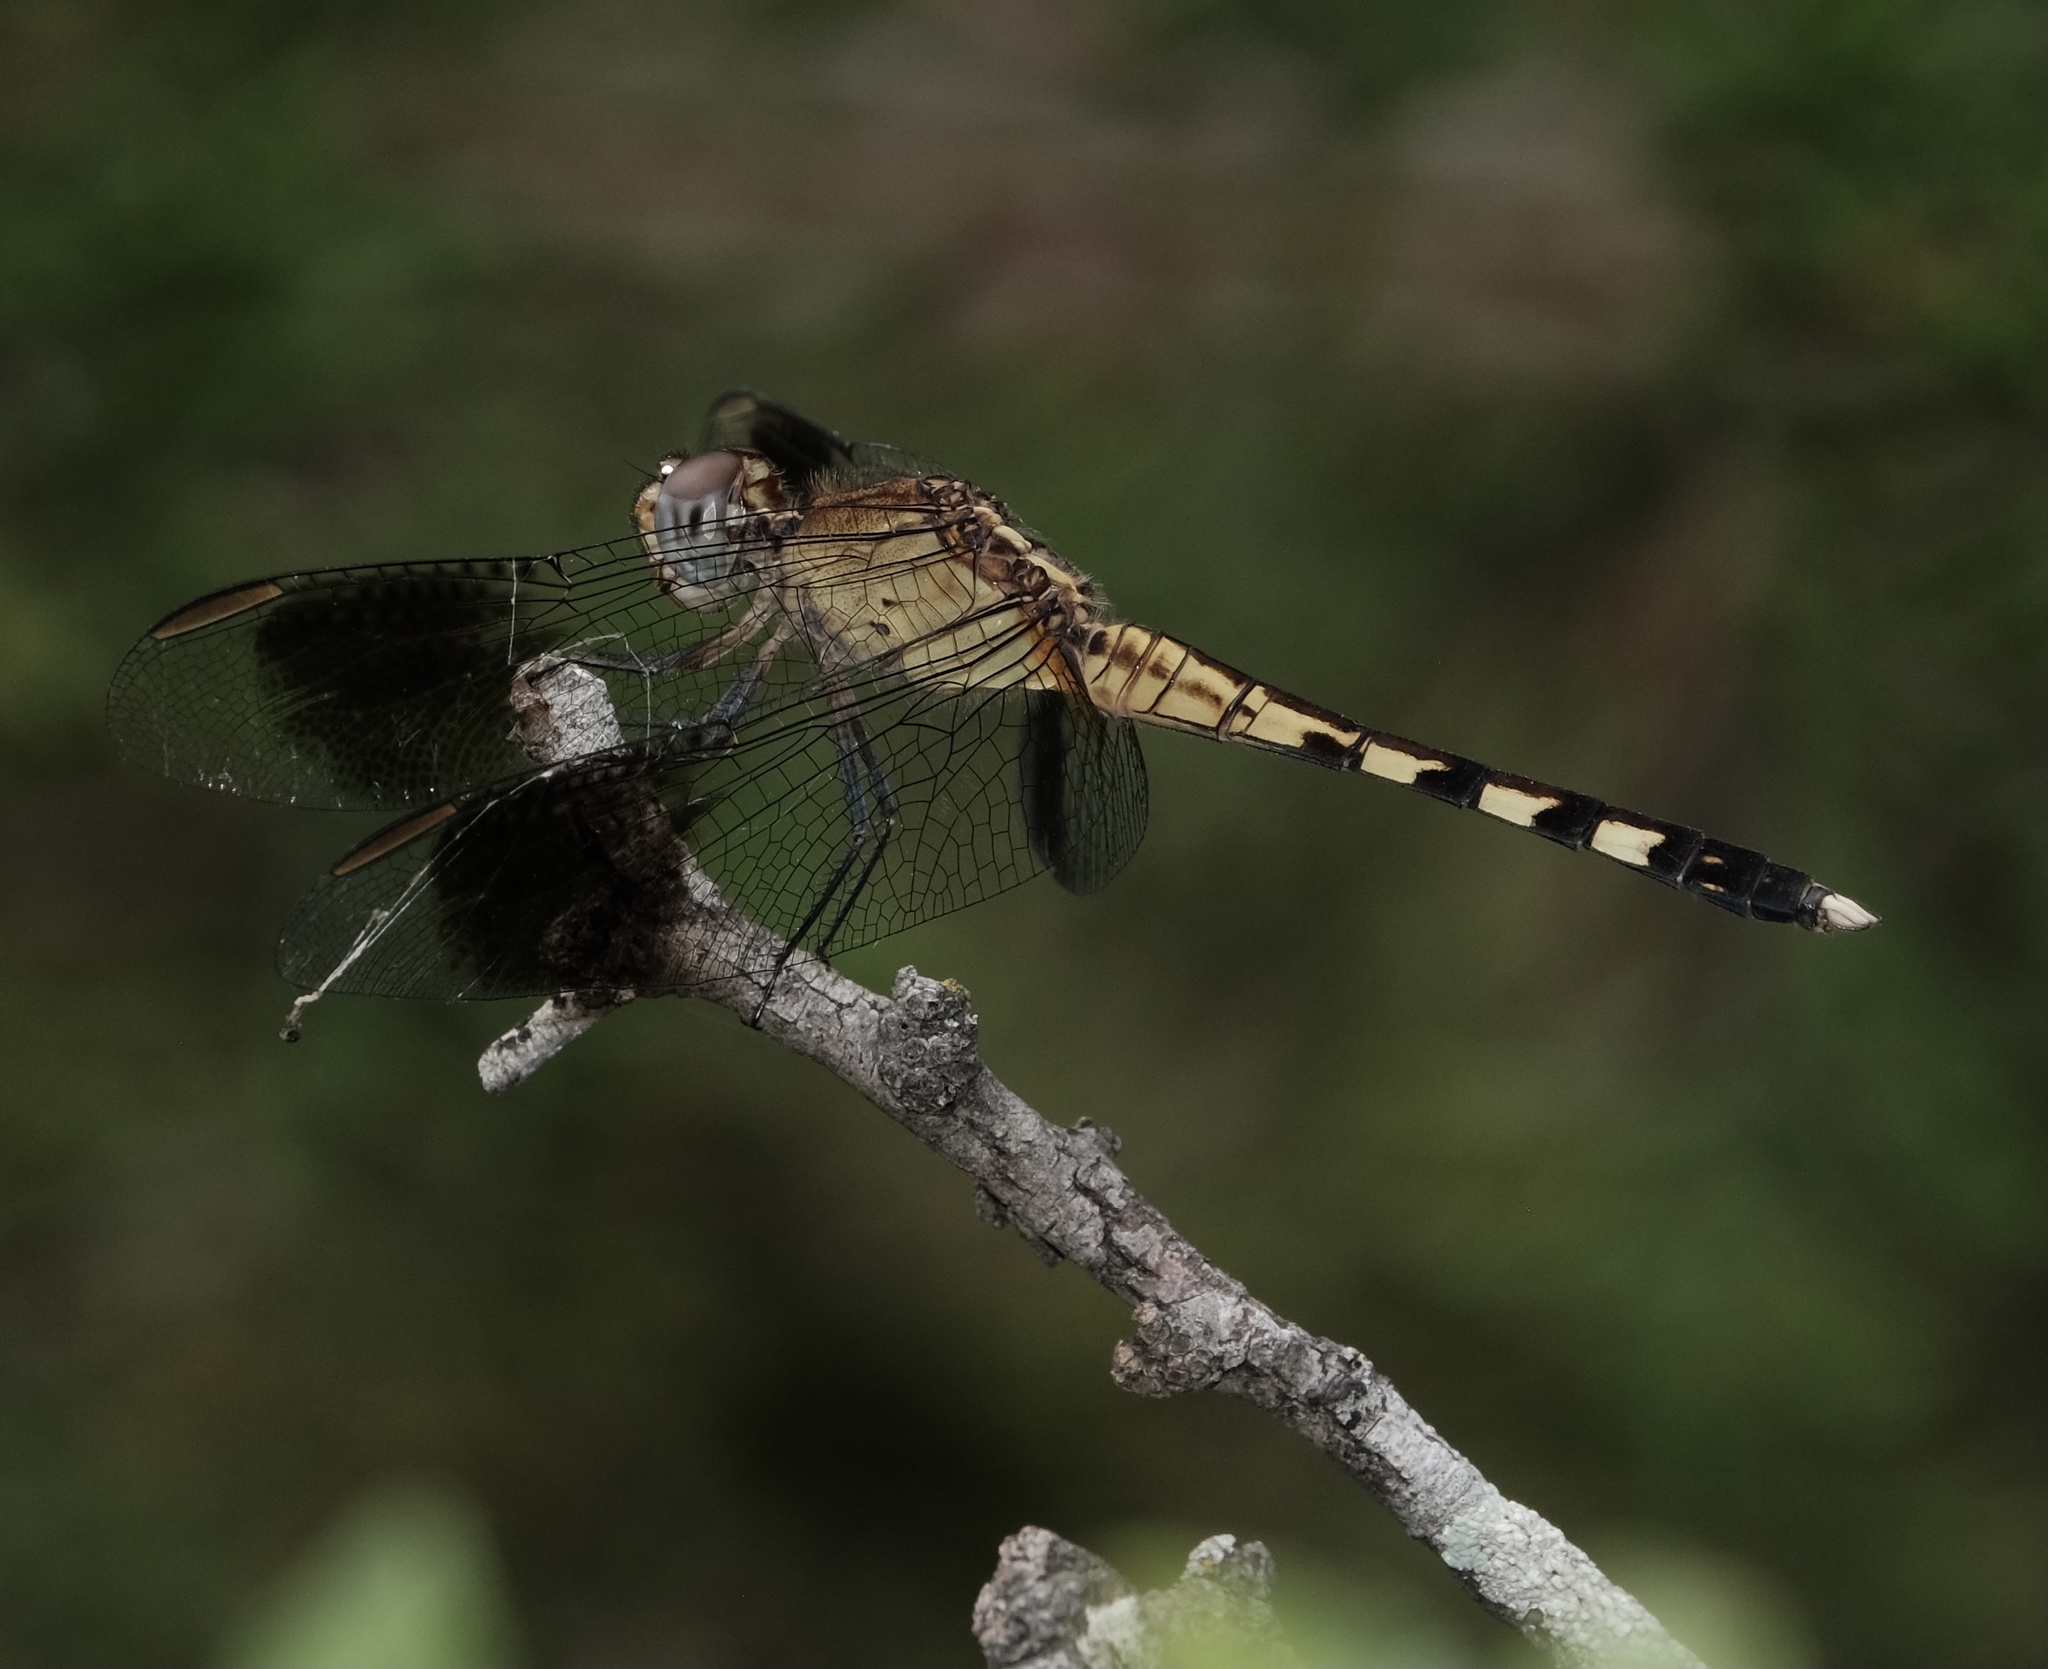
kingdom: Animalia
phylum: Arthropoda
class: Insecta
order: Odonata
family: Libellulidae
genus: Erythrodiplax
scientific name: Erythrodiplax umbrata
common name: Band-winged dragonlet
